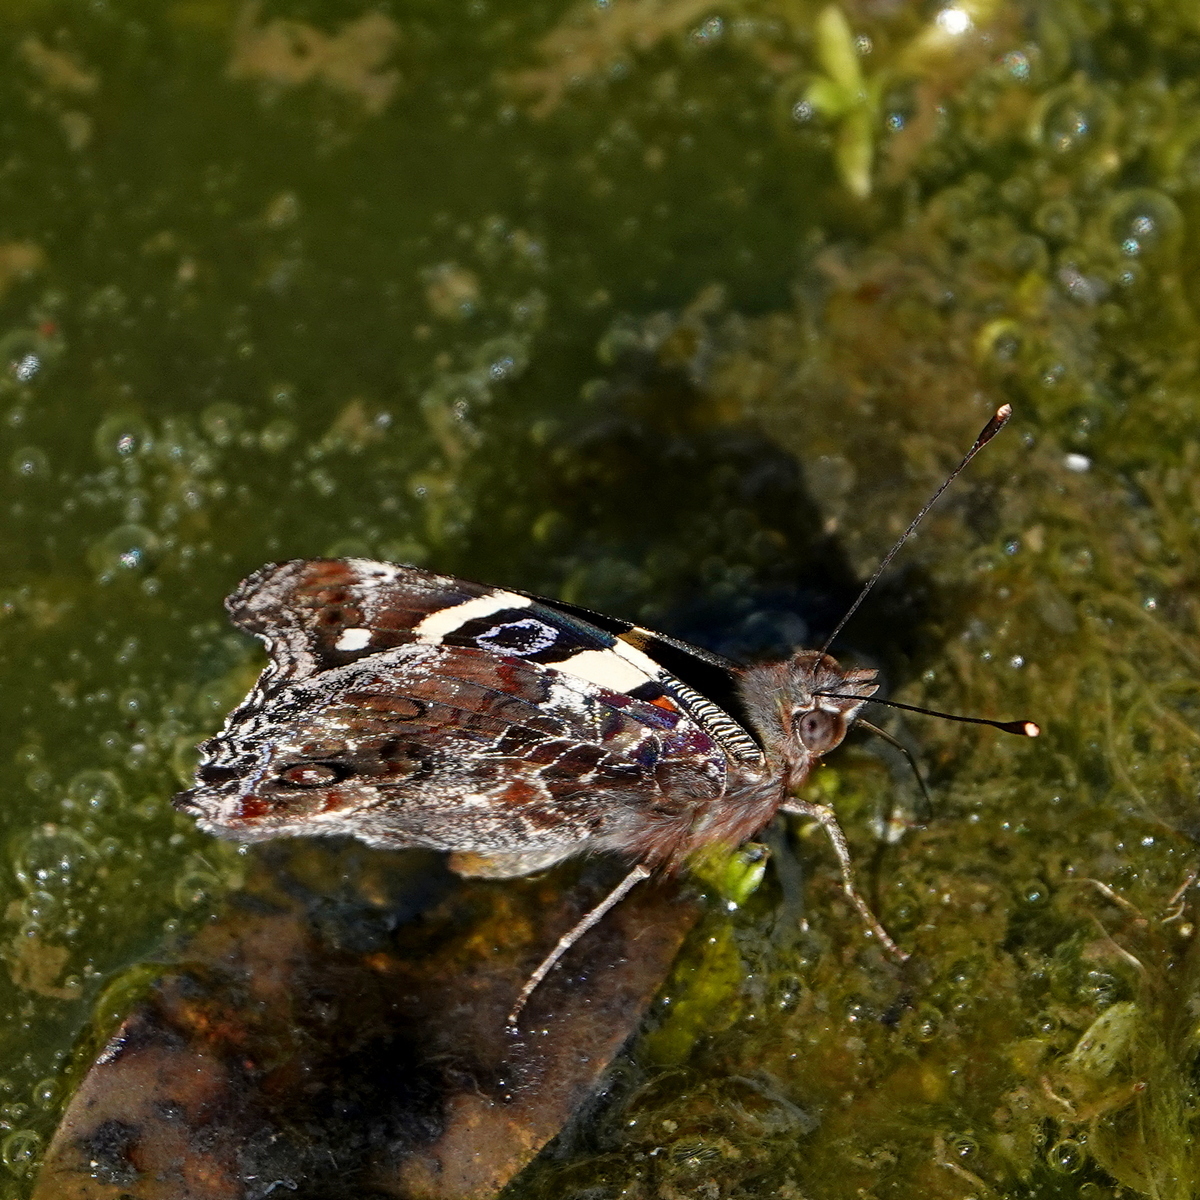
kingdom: Animalia
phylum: Arthropoda
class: Insecta
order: Lepidoptera
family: Nymphalidae
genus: Vanessa
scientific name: Vanessa itea
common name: Yellow admiral
